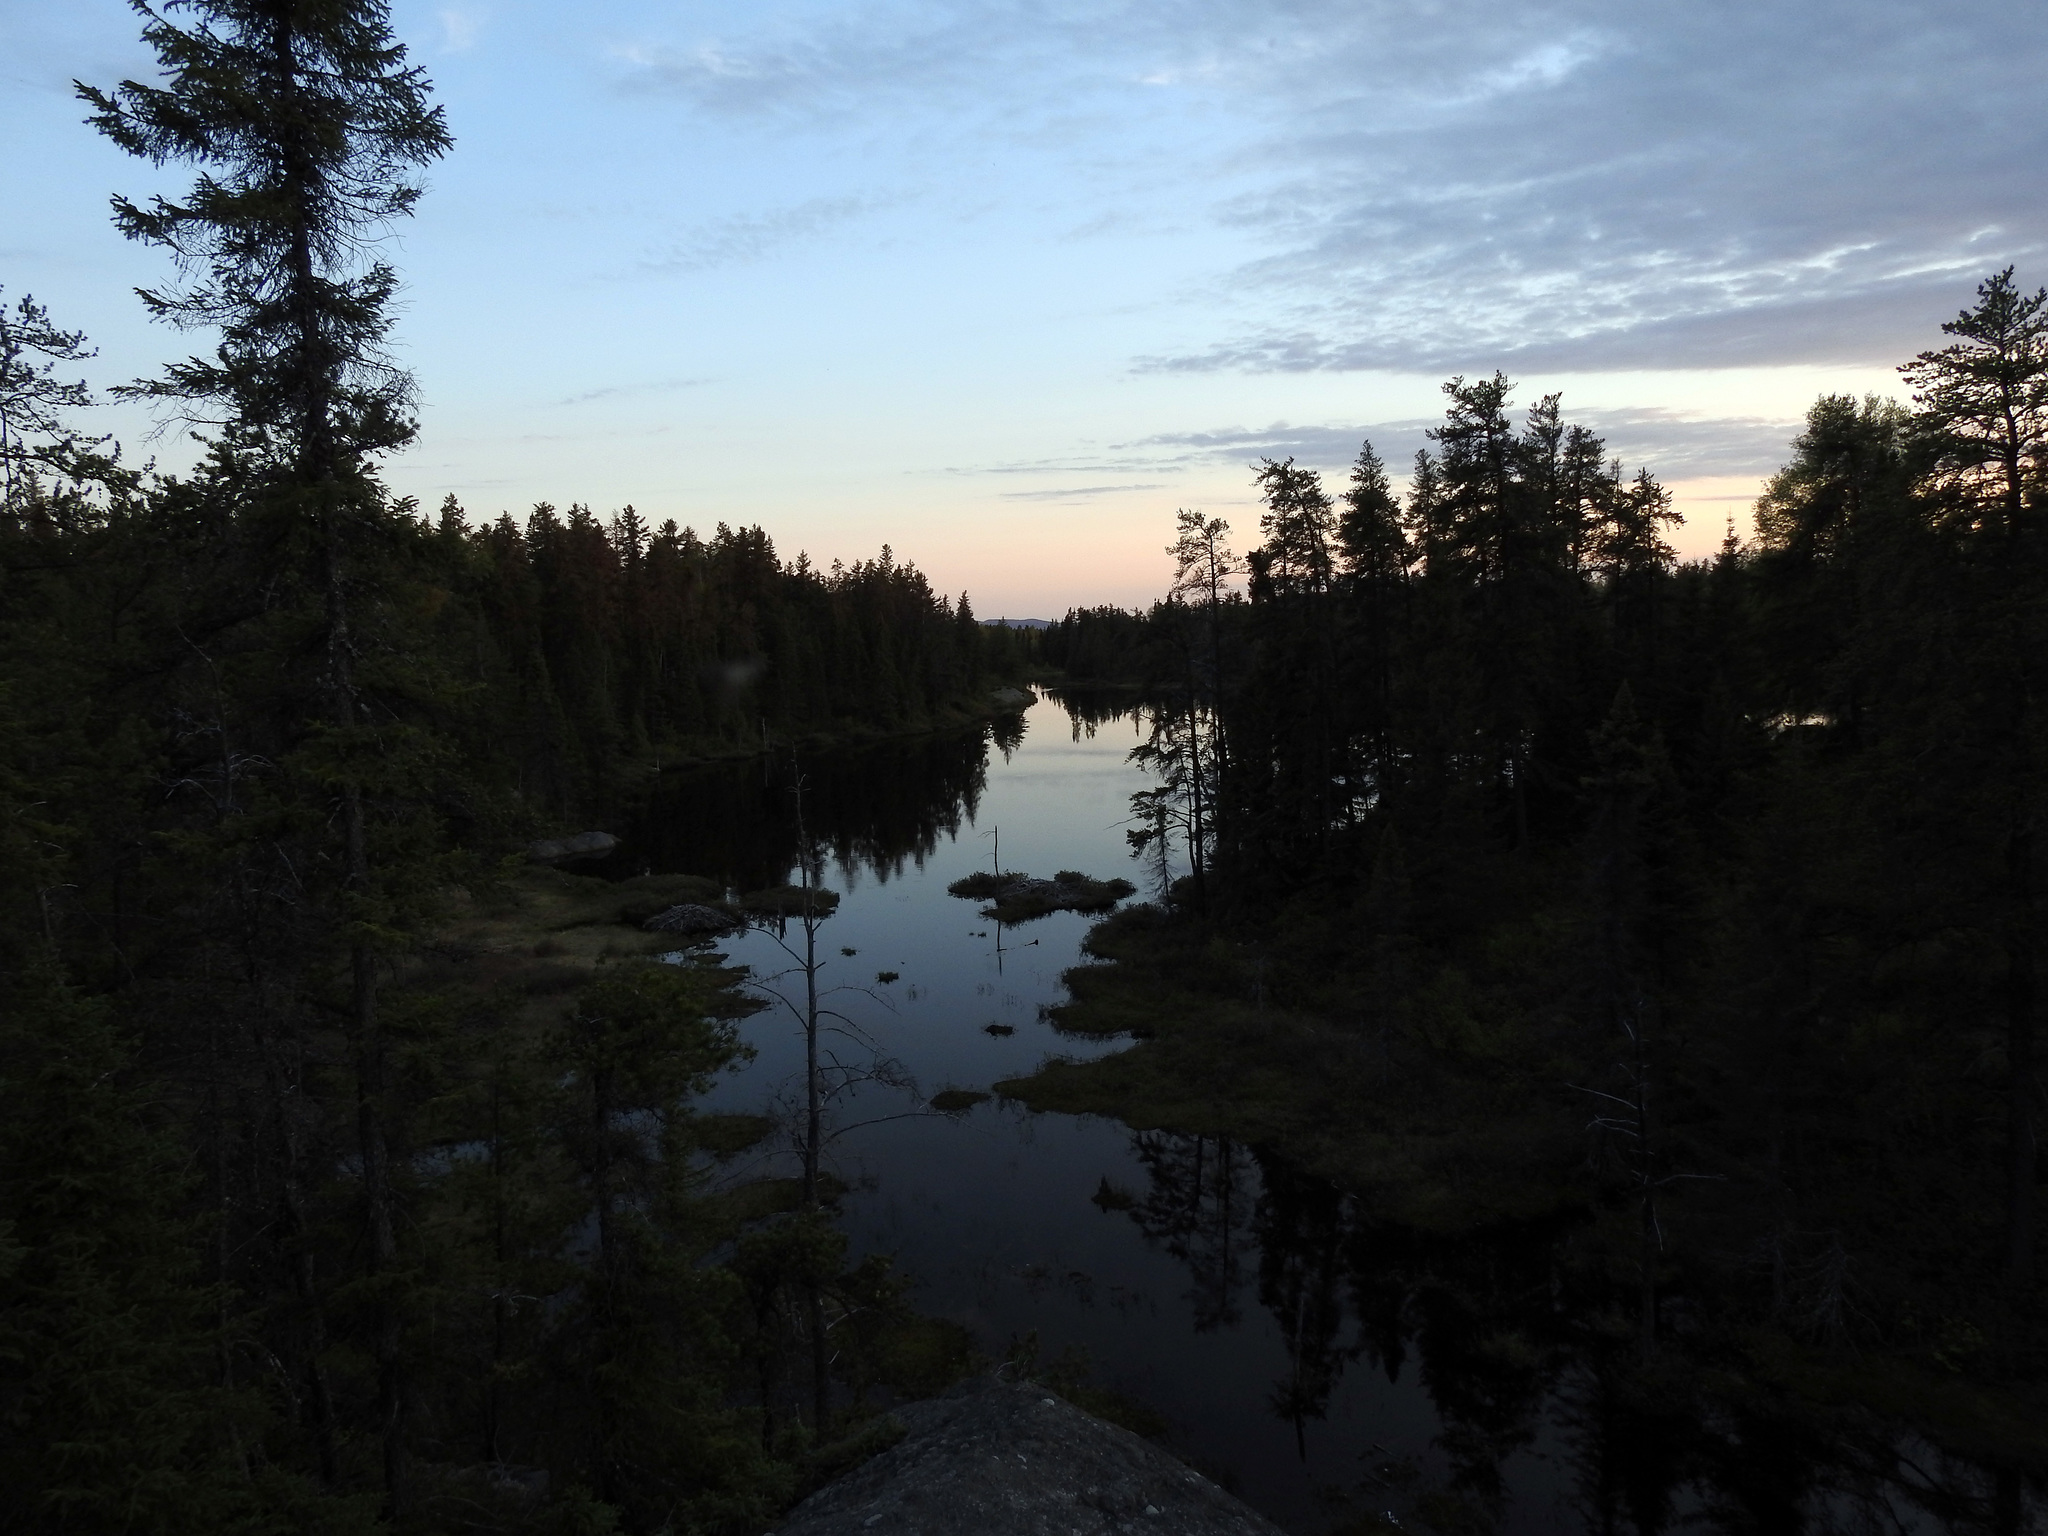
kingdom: Plantae
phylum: Tracheophyta
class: Pinopsida
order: Pinales
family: Pinaceae
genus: Pinus
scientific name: Pinus banksiana
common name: Jack pine
